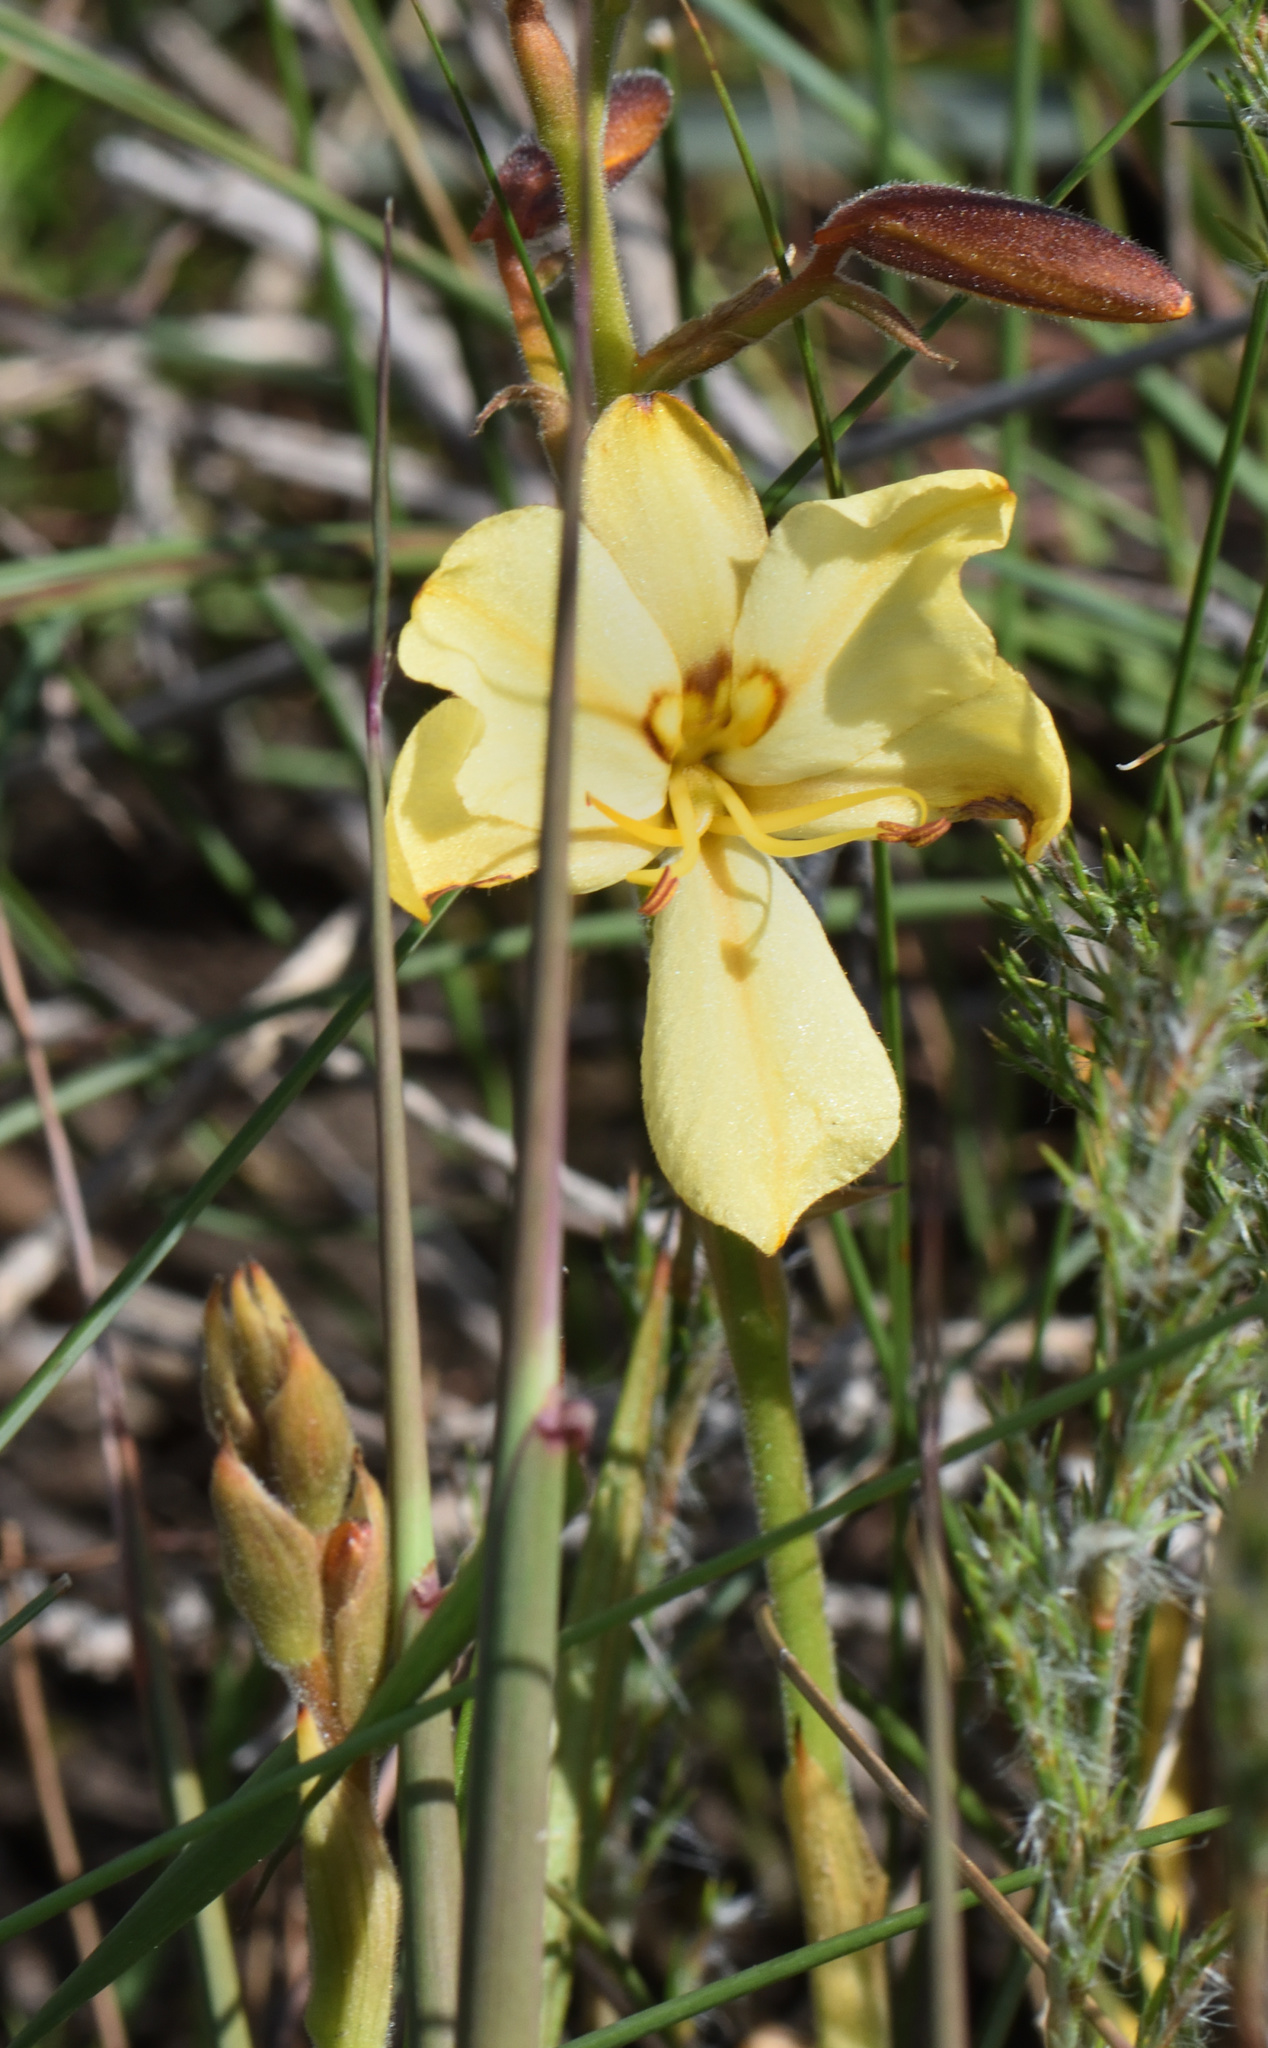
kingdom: Plantae
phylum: Tracheophyta
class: Liliopsida
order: Commelinales
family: Haemodoraceae
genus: Wachendorfia
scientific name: Wachendorfia paniculata
